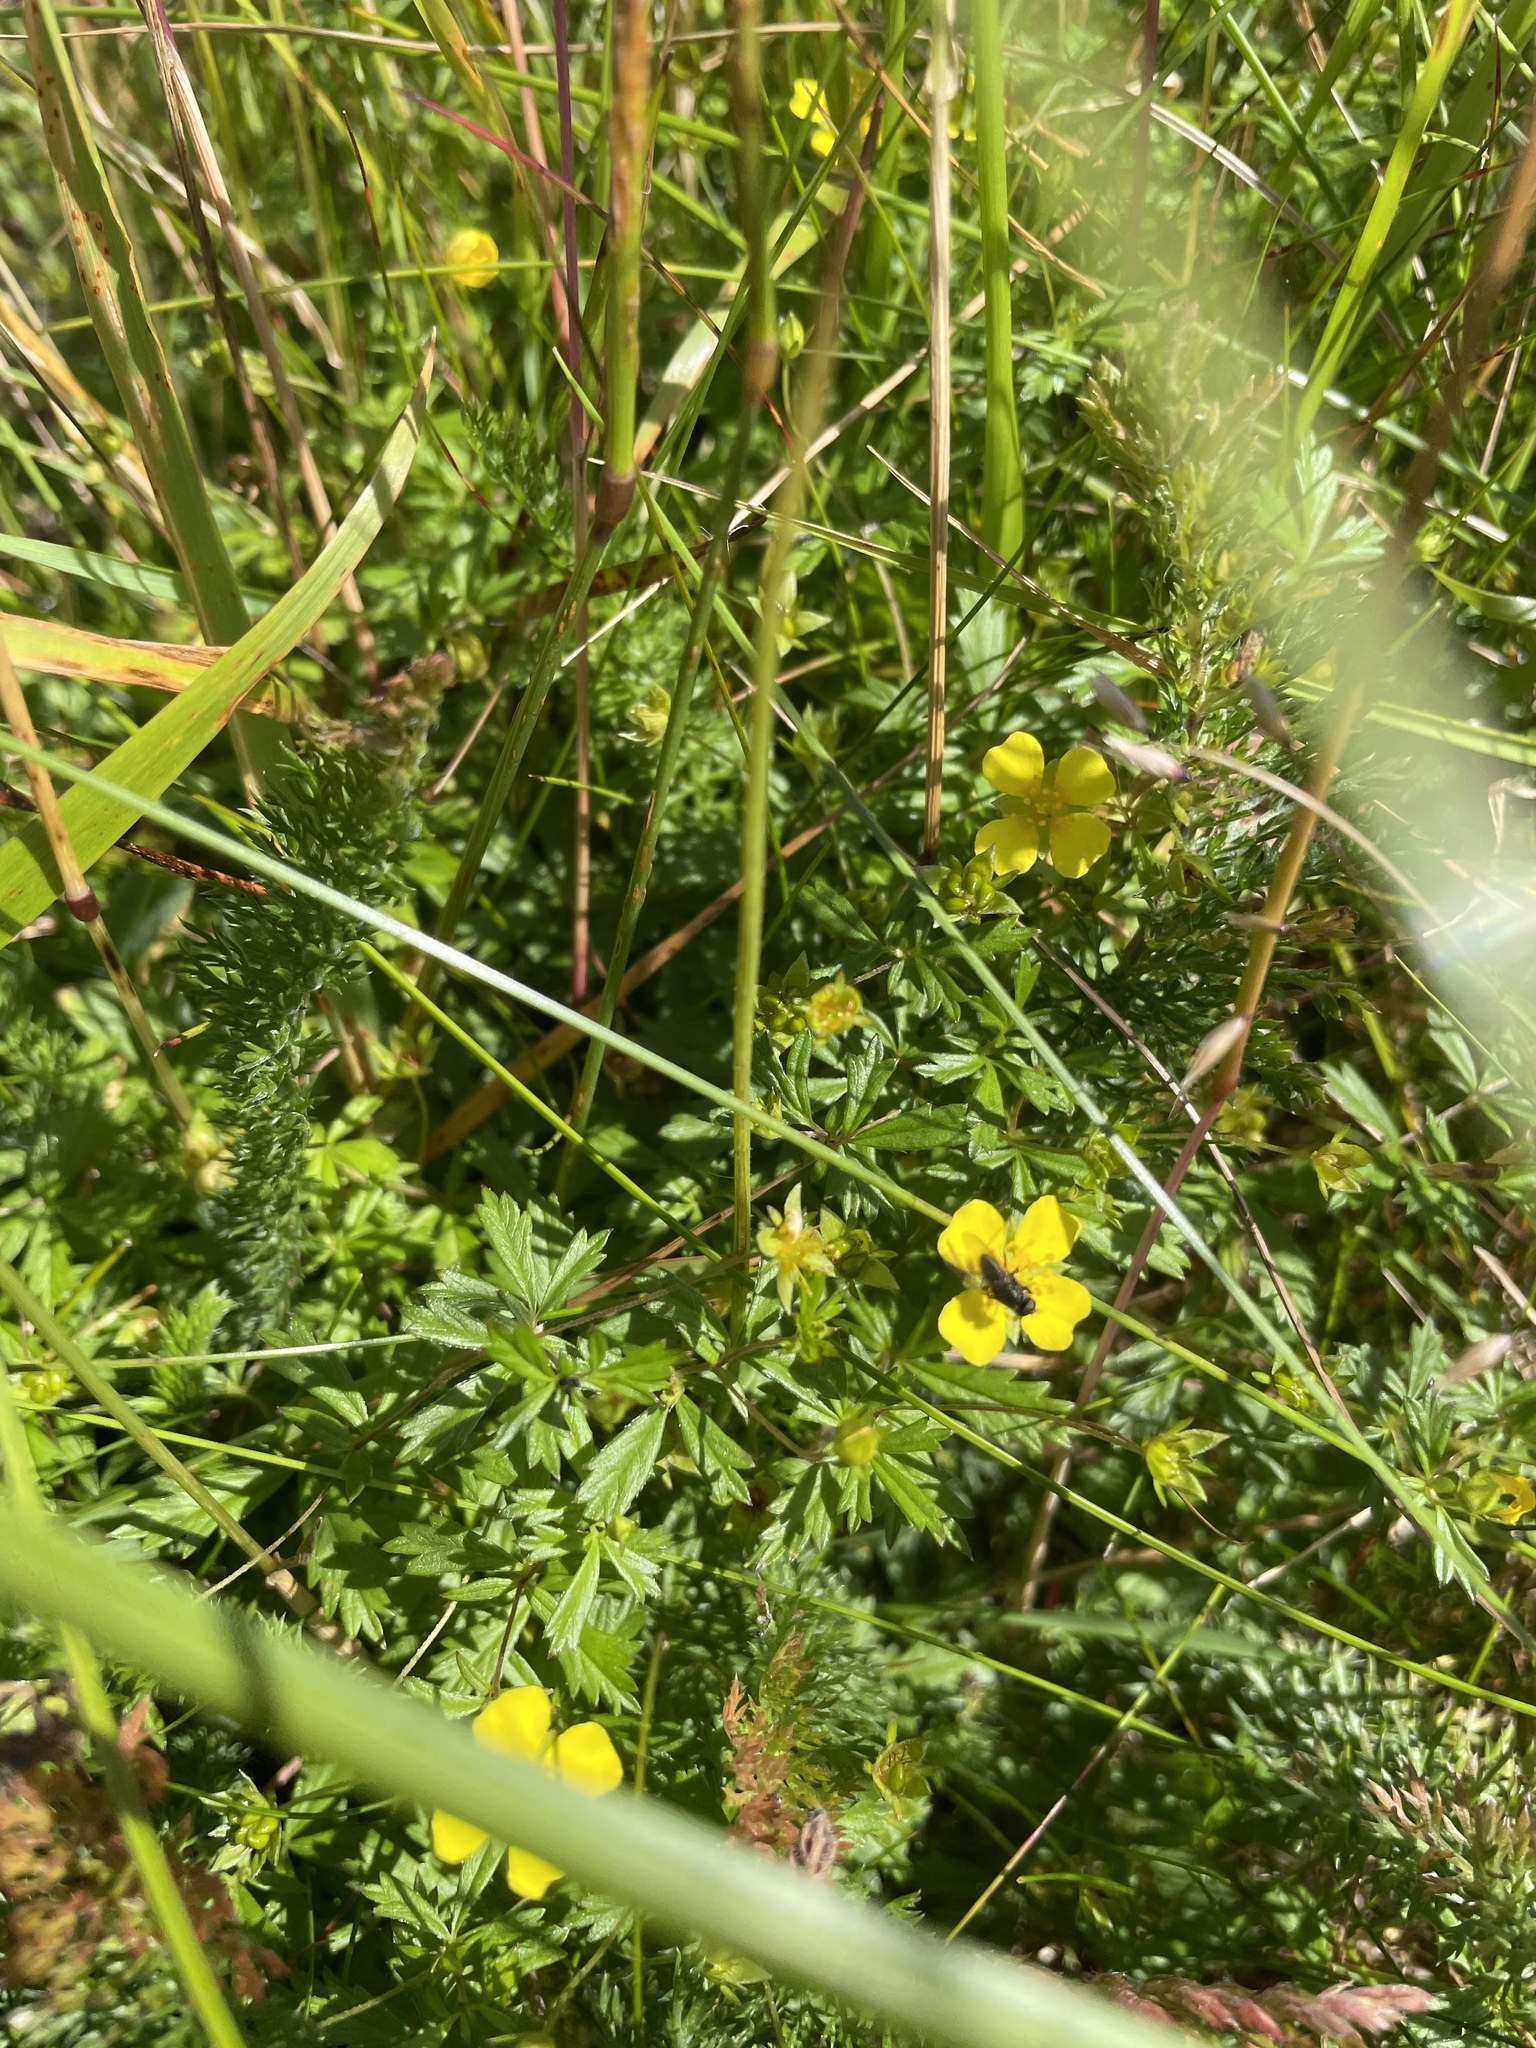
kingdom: Plantae
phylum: Tracheophyta
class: Magnoliopsida
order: Rosales
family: Rosaceae
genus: Potentilla
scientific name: Potentilla erecta
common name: Tormentil
